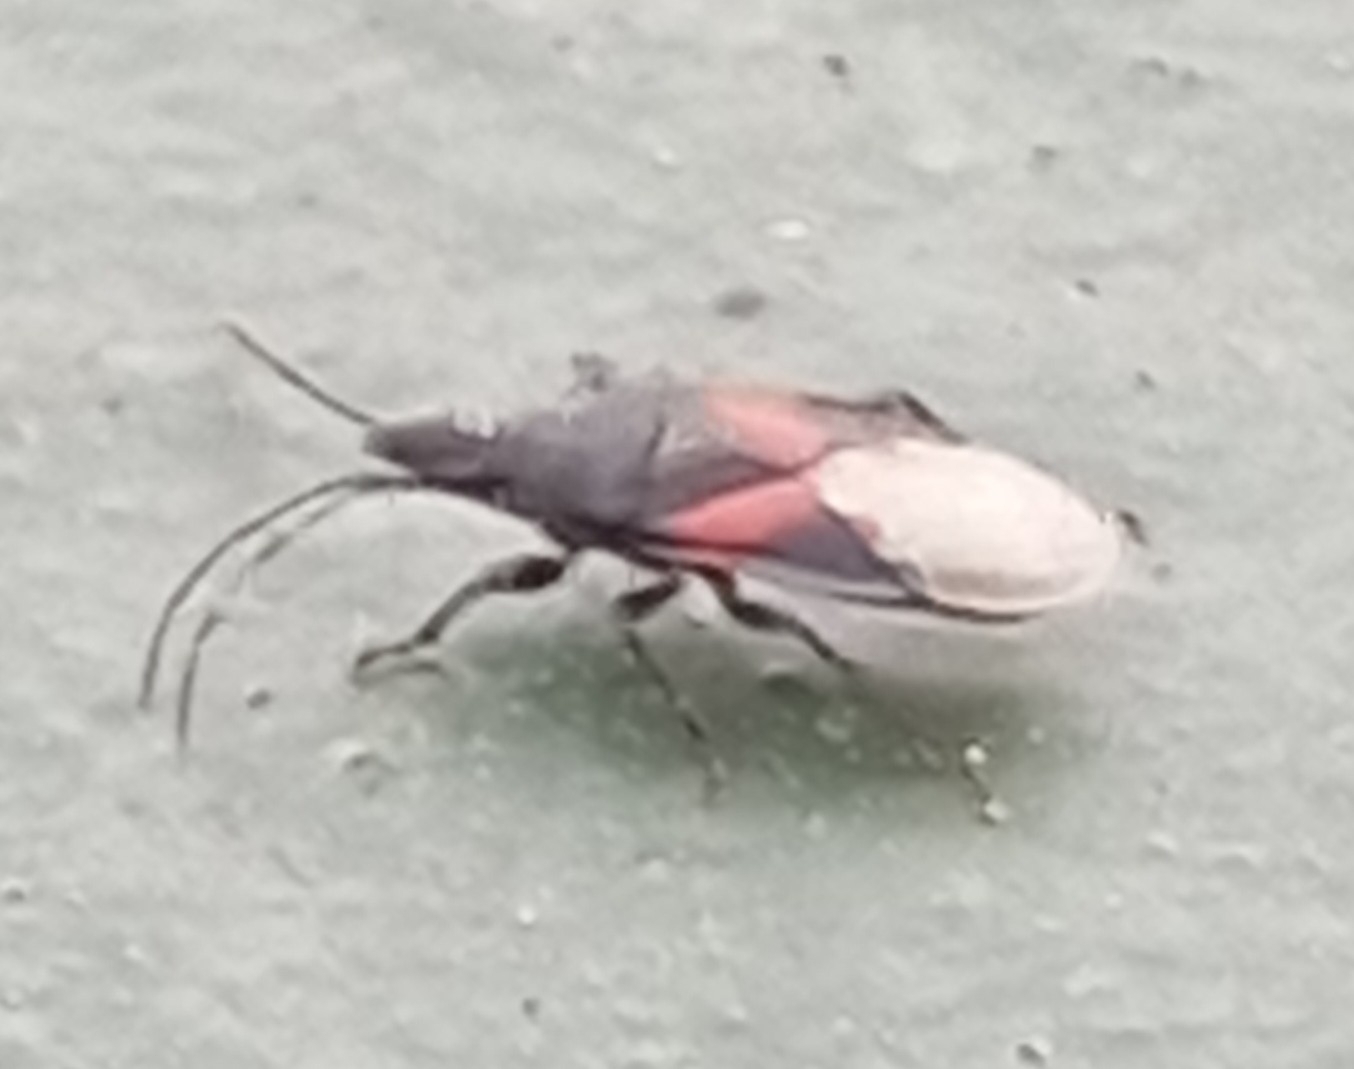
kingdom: Animalia
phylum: Arthropoda
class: Insecta
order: Hemiptera
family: Oxycarenidae
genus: Oxycarenus
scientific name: Oxycarenus lavaterae
